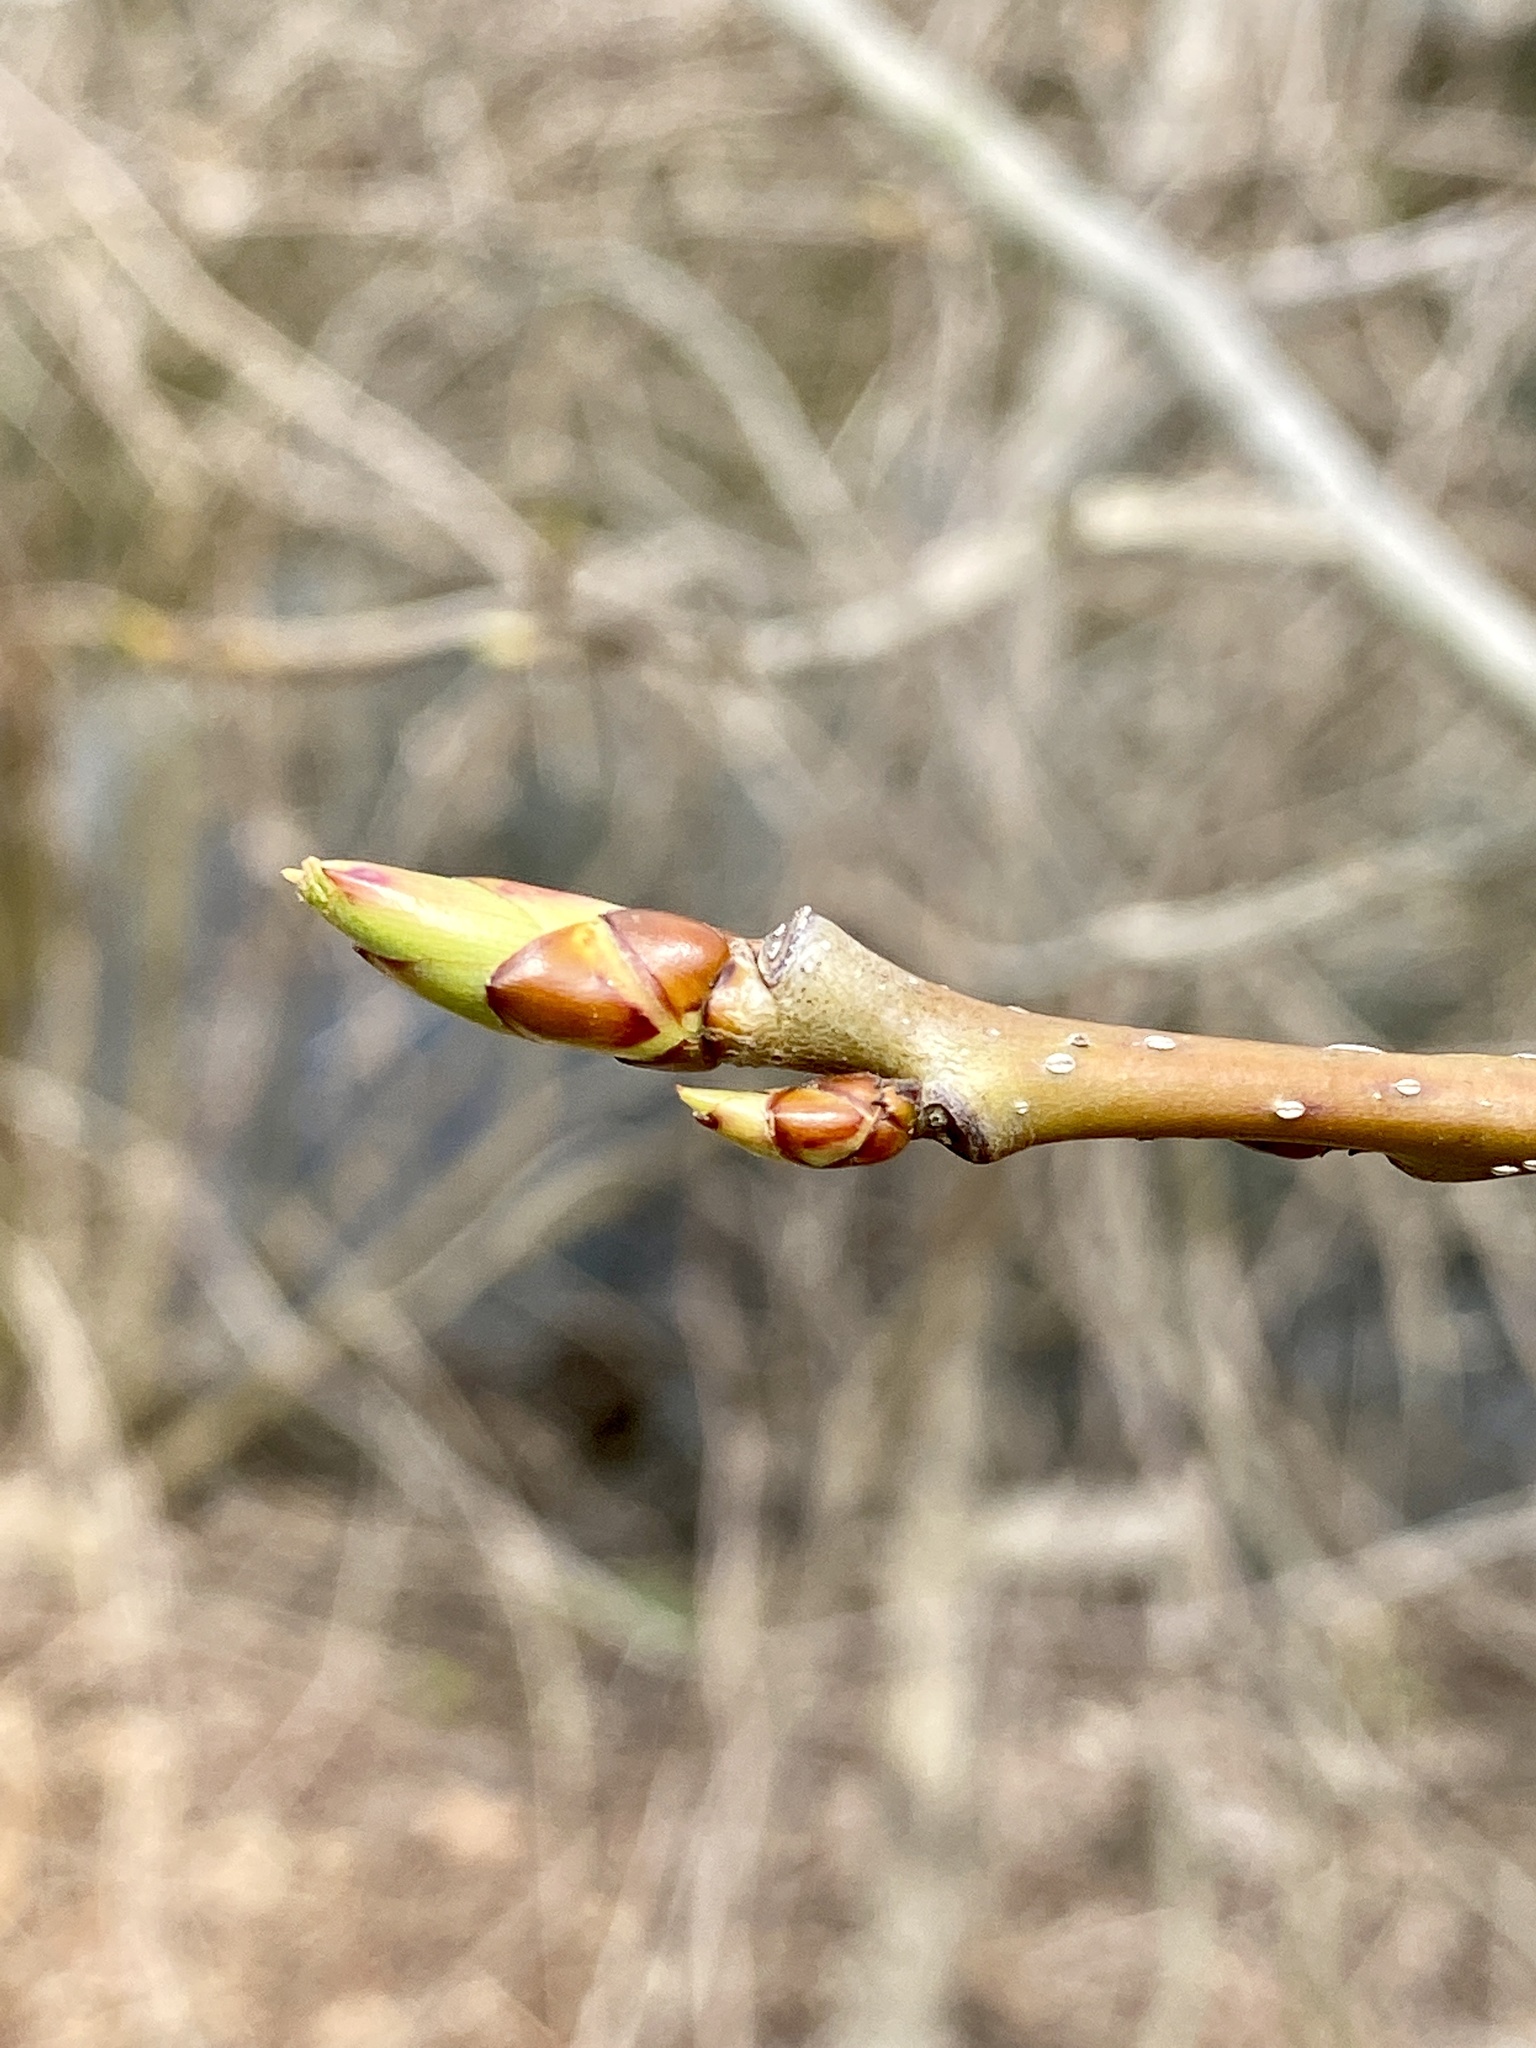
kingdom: Plantae
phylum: Tracheophyta
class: Magnoliopsida
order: Saxifragales
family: Altingiaceae
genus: Liquidambar
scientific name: Liquidambar styraciflua
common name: Sweet gum
